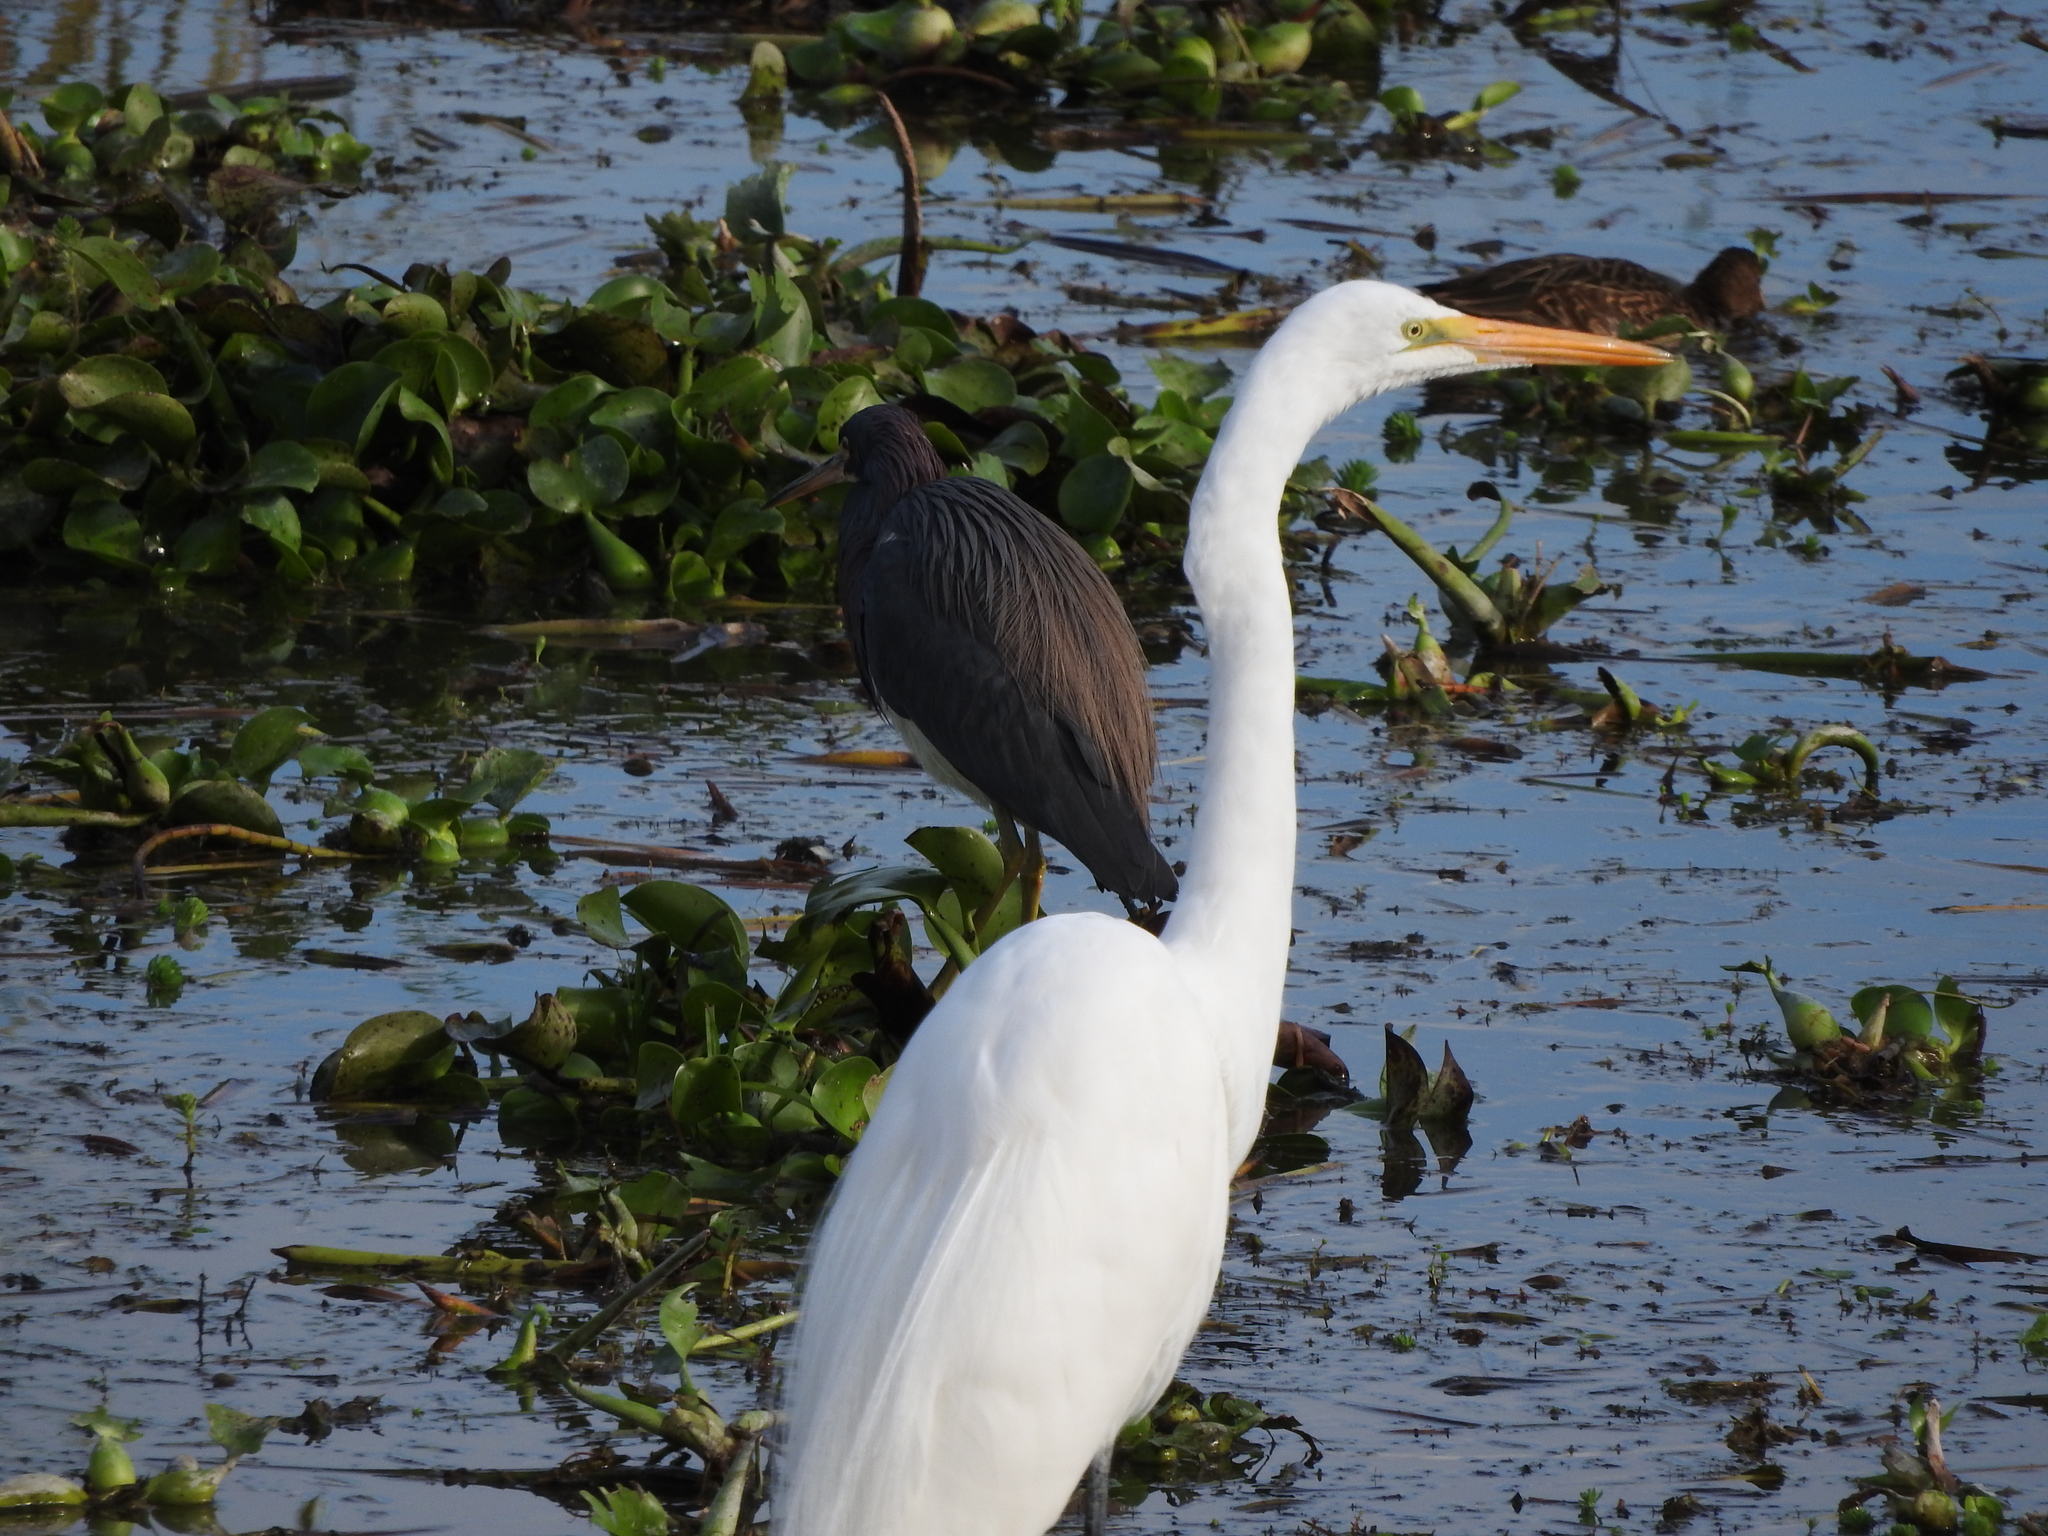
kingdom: Animalia
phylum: Chordata
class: Aves
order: Pelecaniformes
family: Ardeidae
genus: Ardea
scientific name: Ardea alba
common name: Great egret
